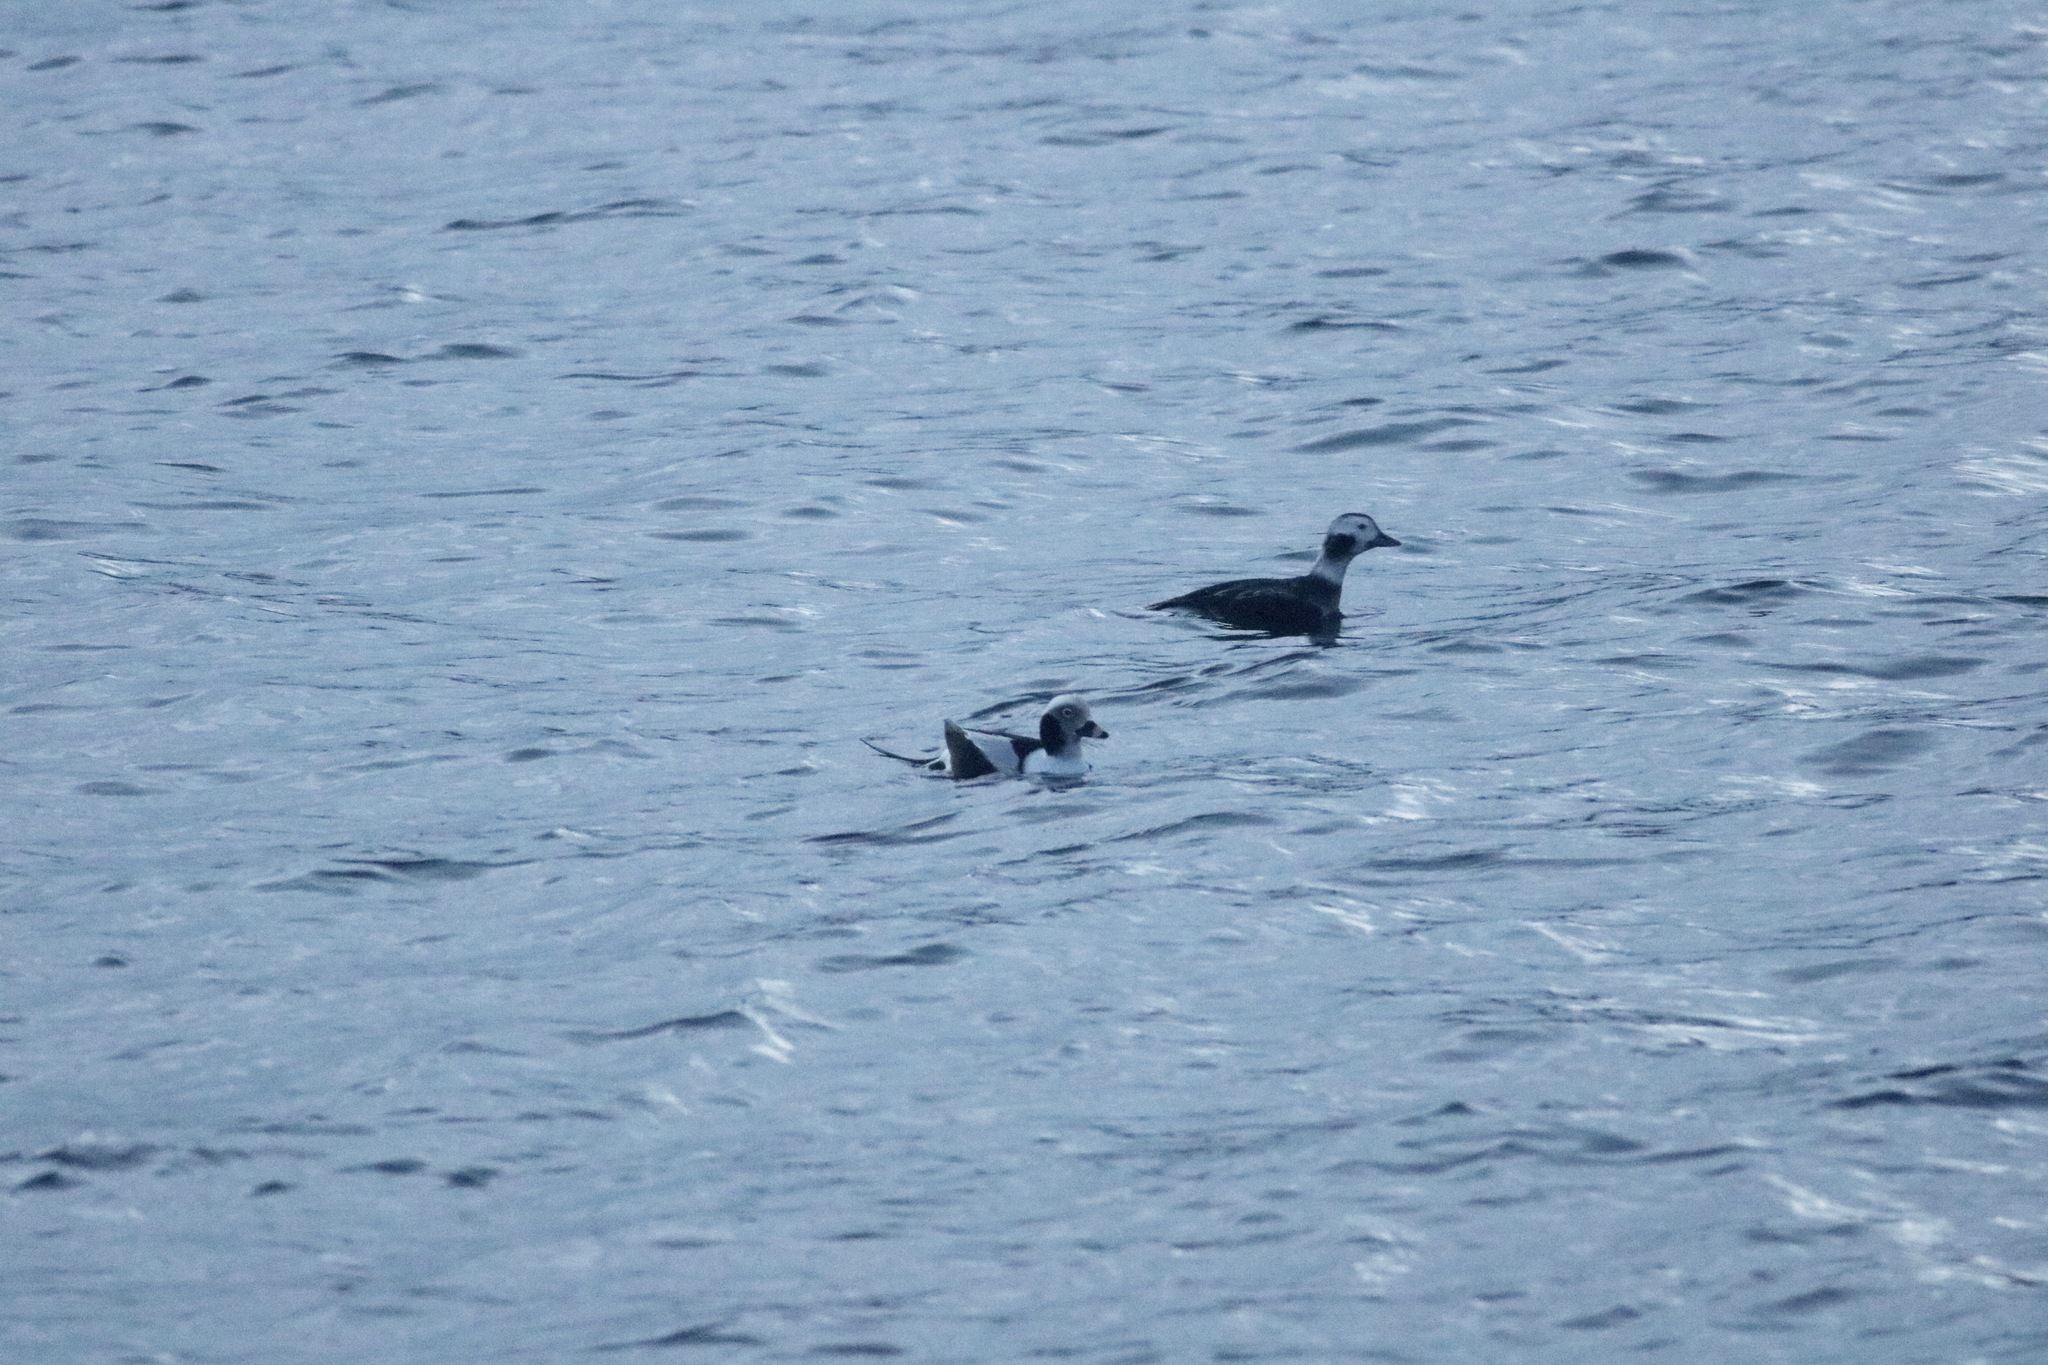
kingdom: Animalia
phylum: Chordata
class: Aves
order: Anseriformes
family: Anatidae
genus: Clangula
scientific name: Clangula hyemalis
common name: Long-tailed duck
